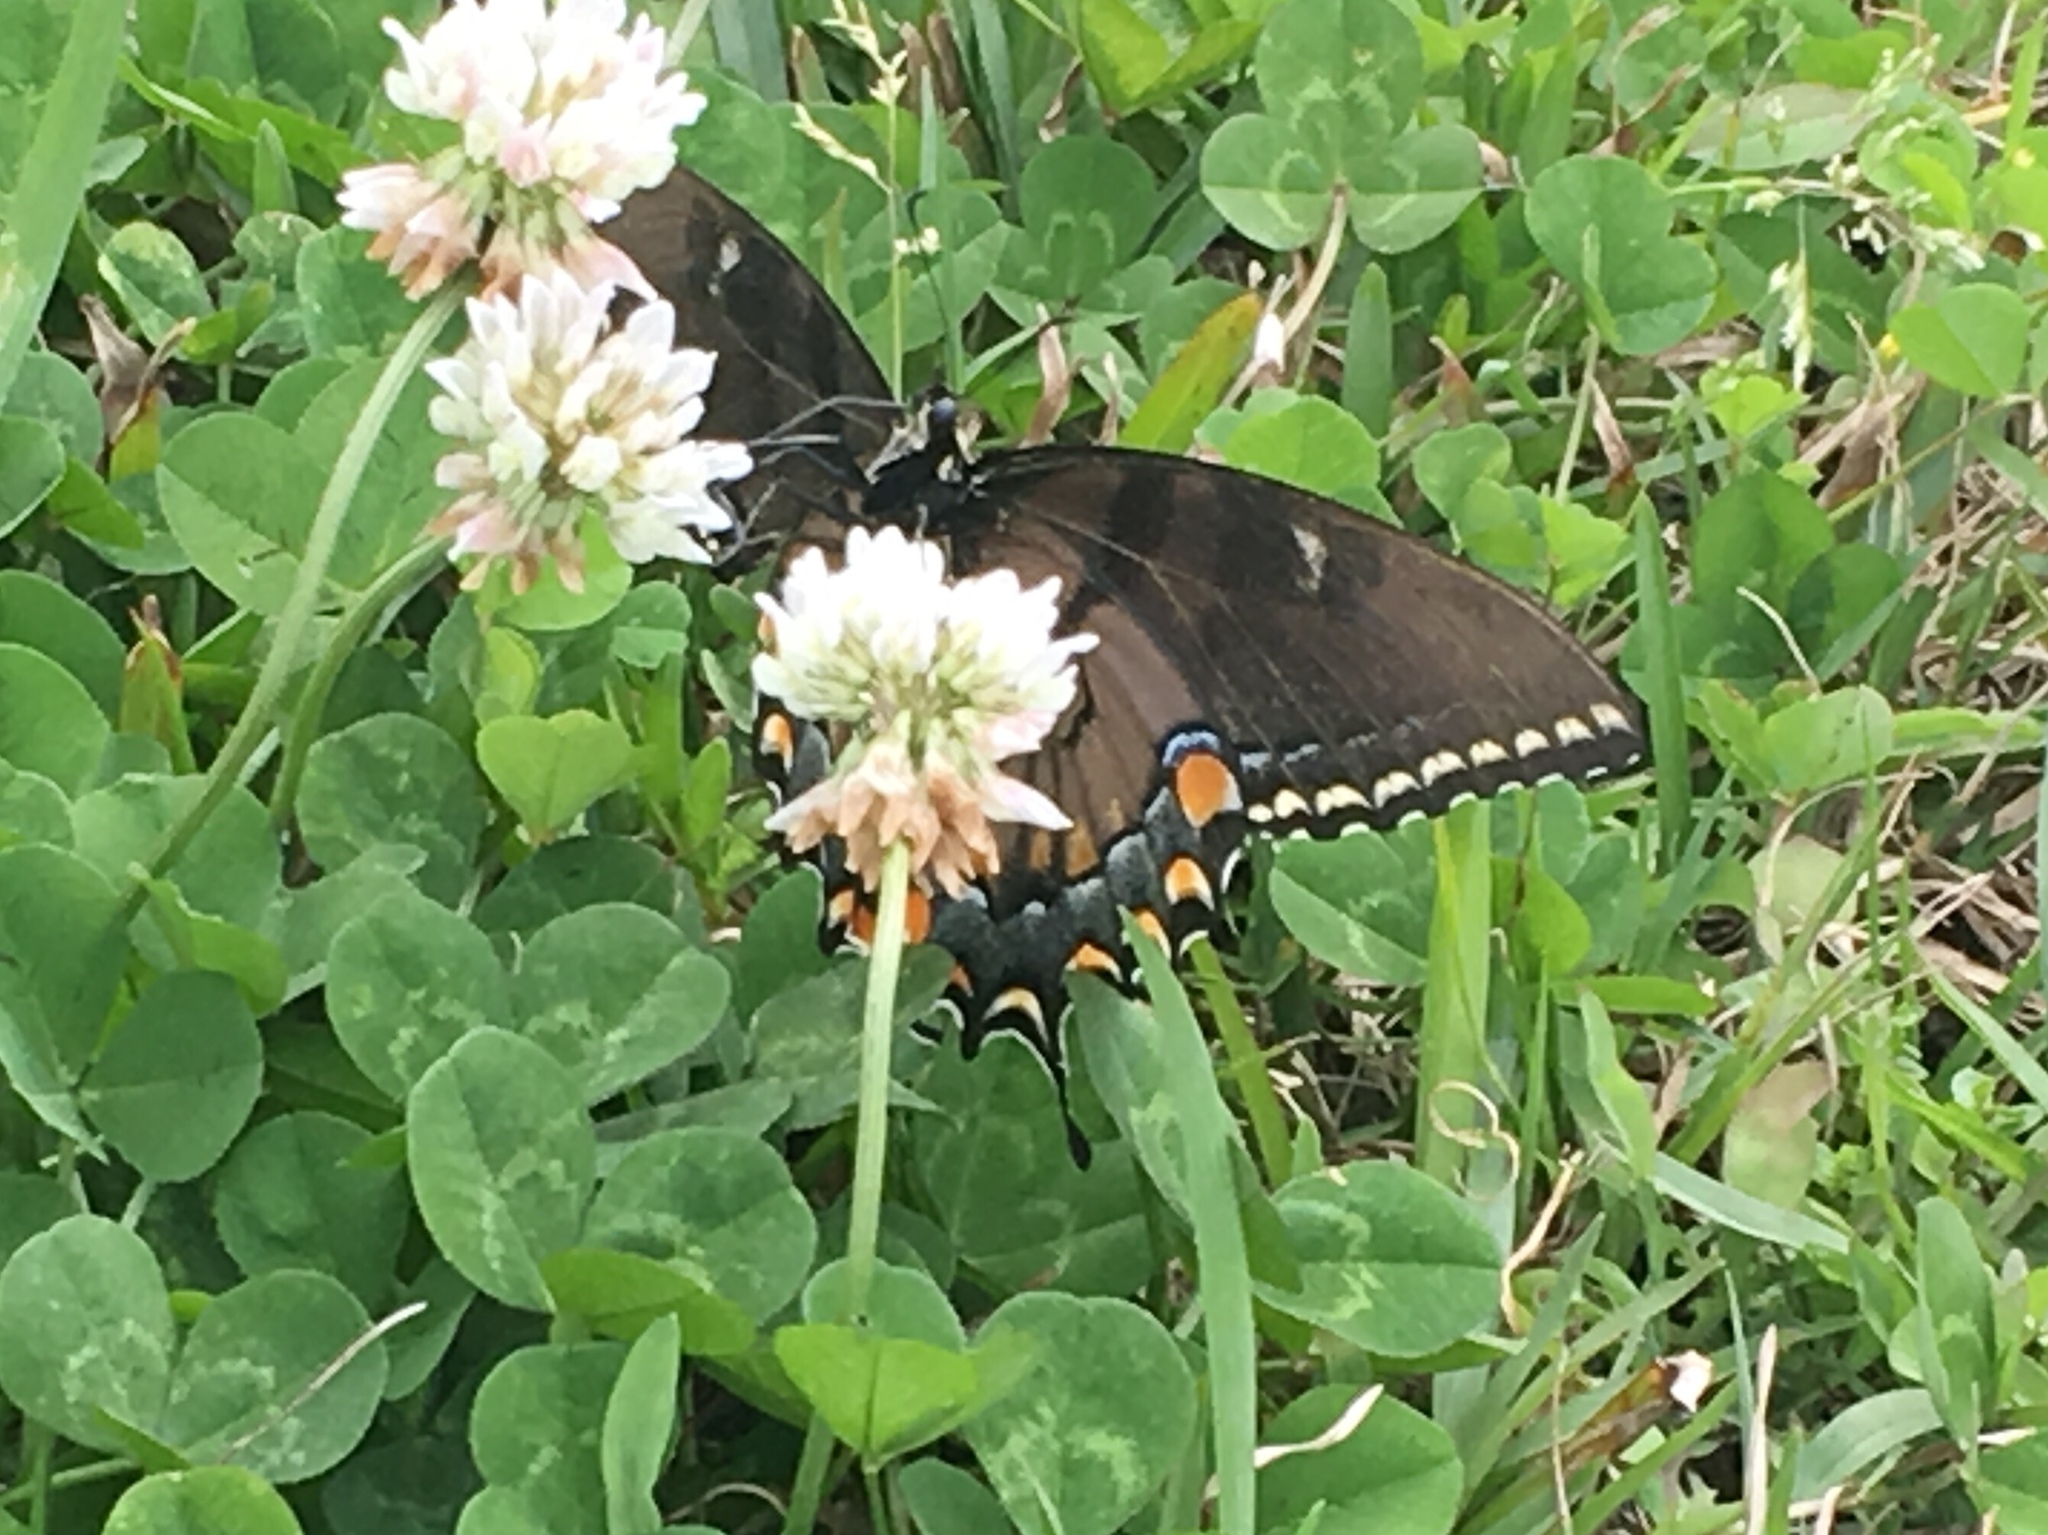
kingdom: Animalia
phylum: Arthropoda
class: Insecta
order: Lepidoptera
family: Papilionidae
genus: Papilio
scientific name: Papilio glaucus
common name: Tiger swallowtail
